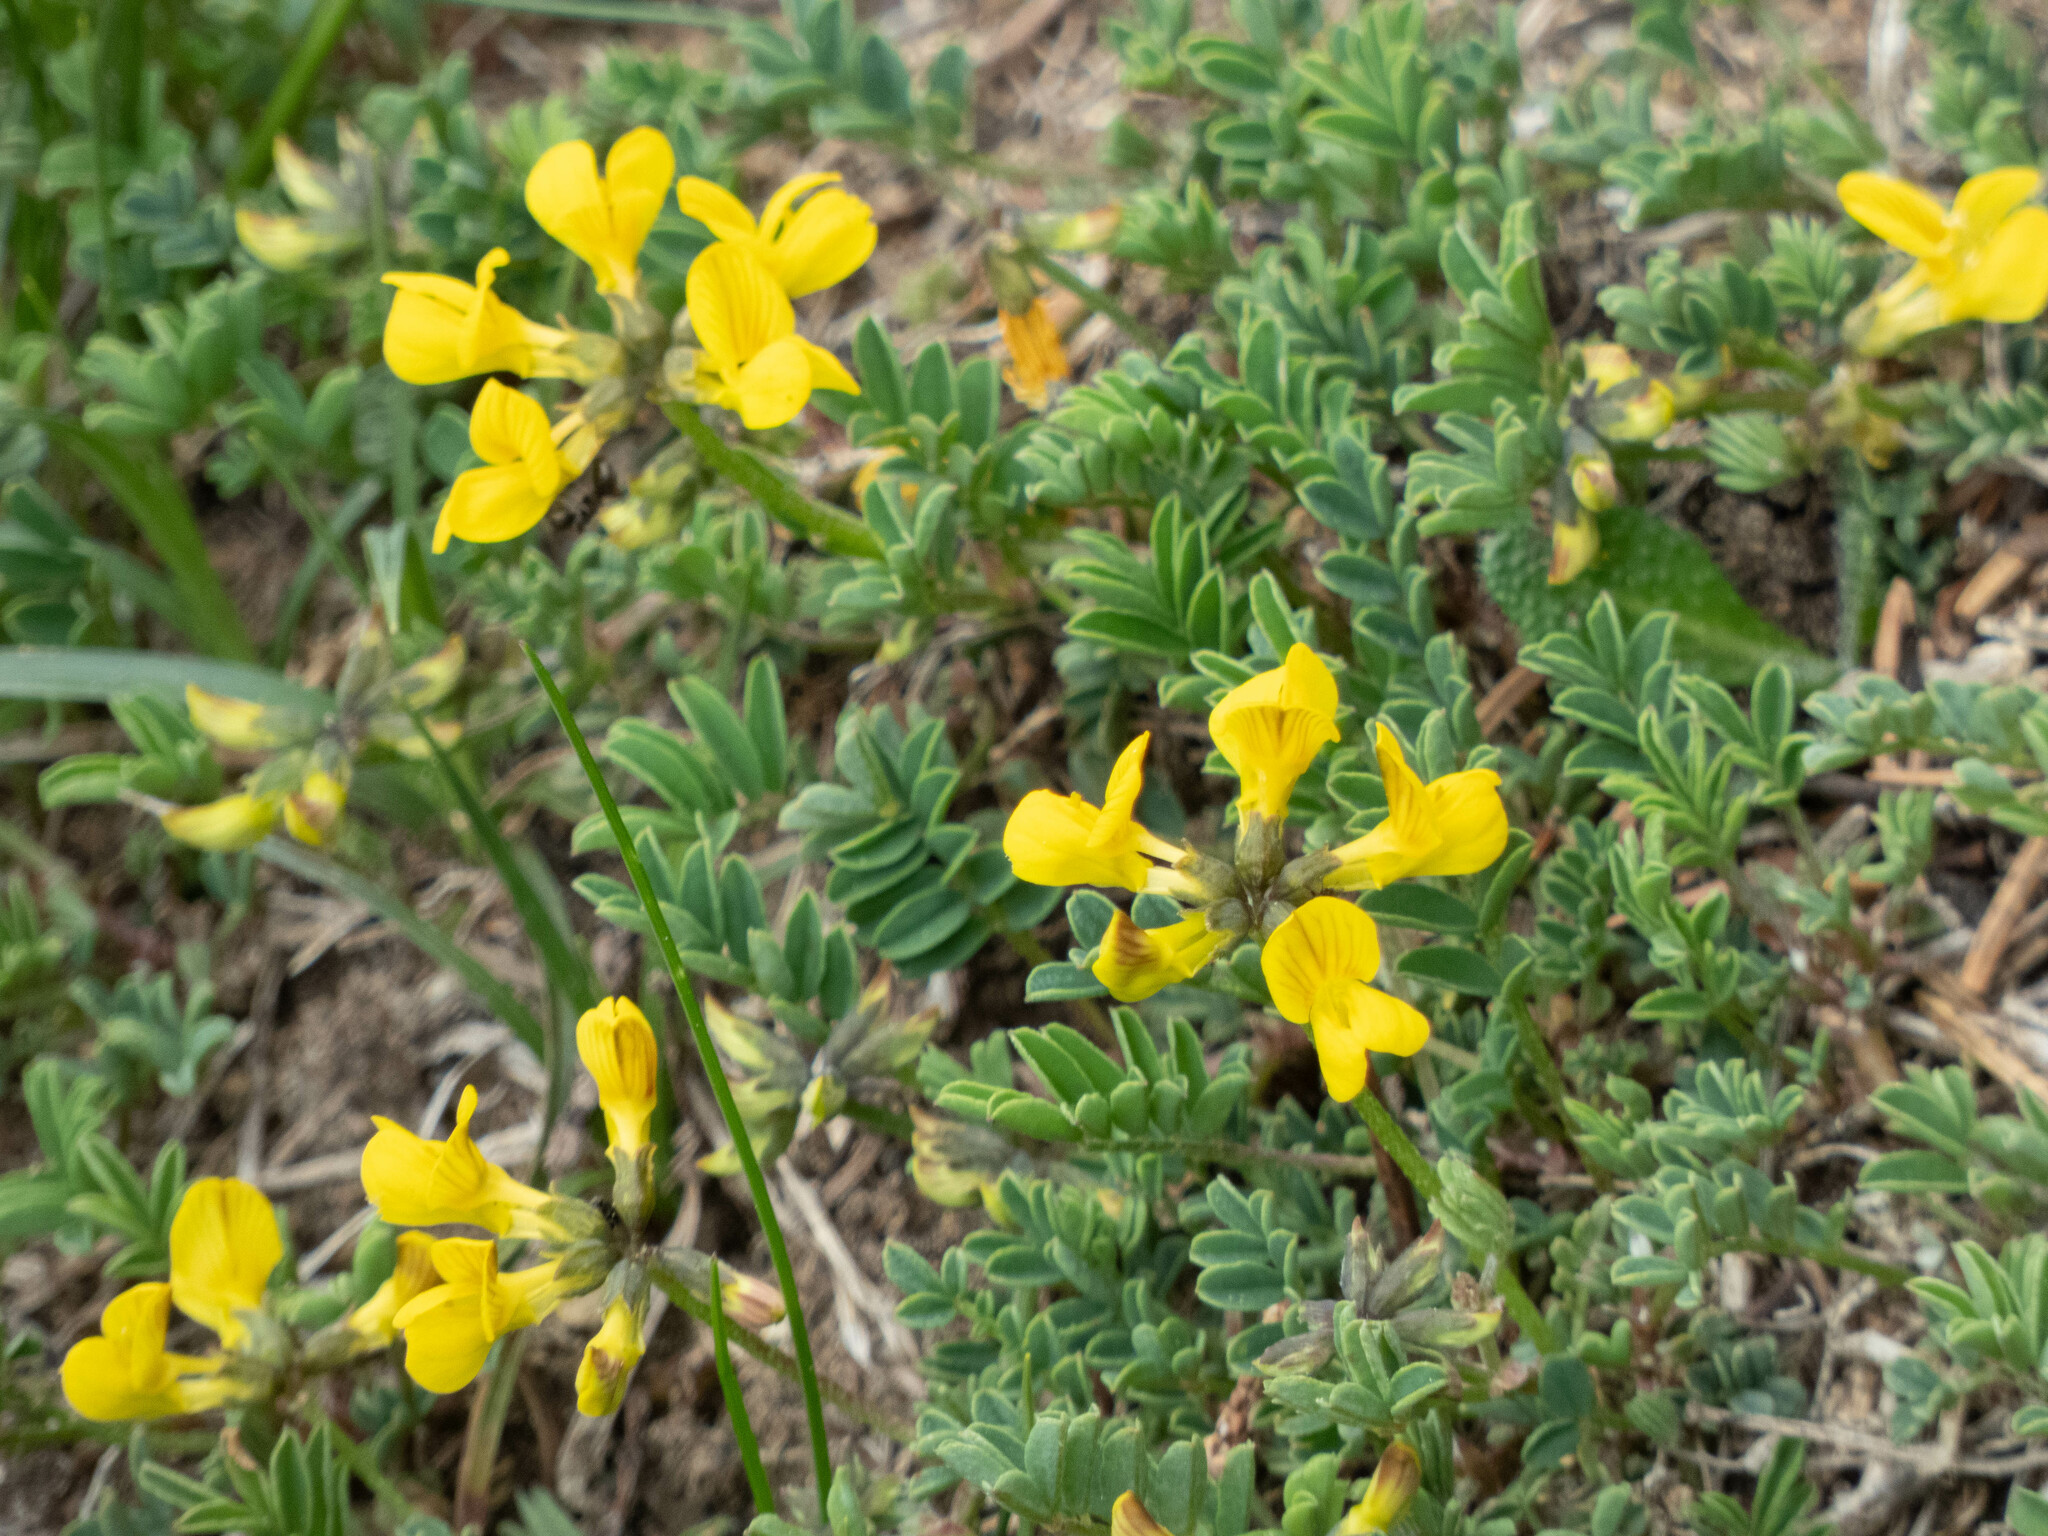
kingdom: Plantae
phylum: Tracheophyta
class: Magnoliopsida
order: Fabales
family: Fabaceae
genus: Hippocrepis
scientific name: Hippocrepis comosa
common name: Horseshoe vetch
